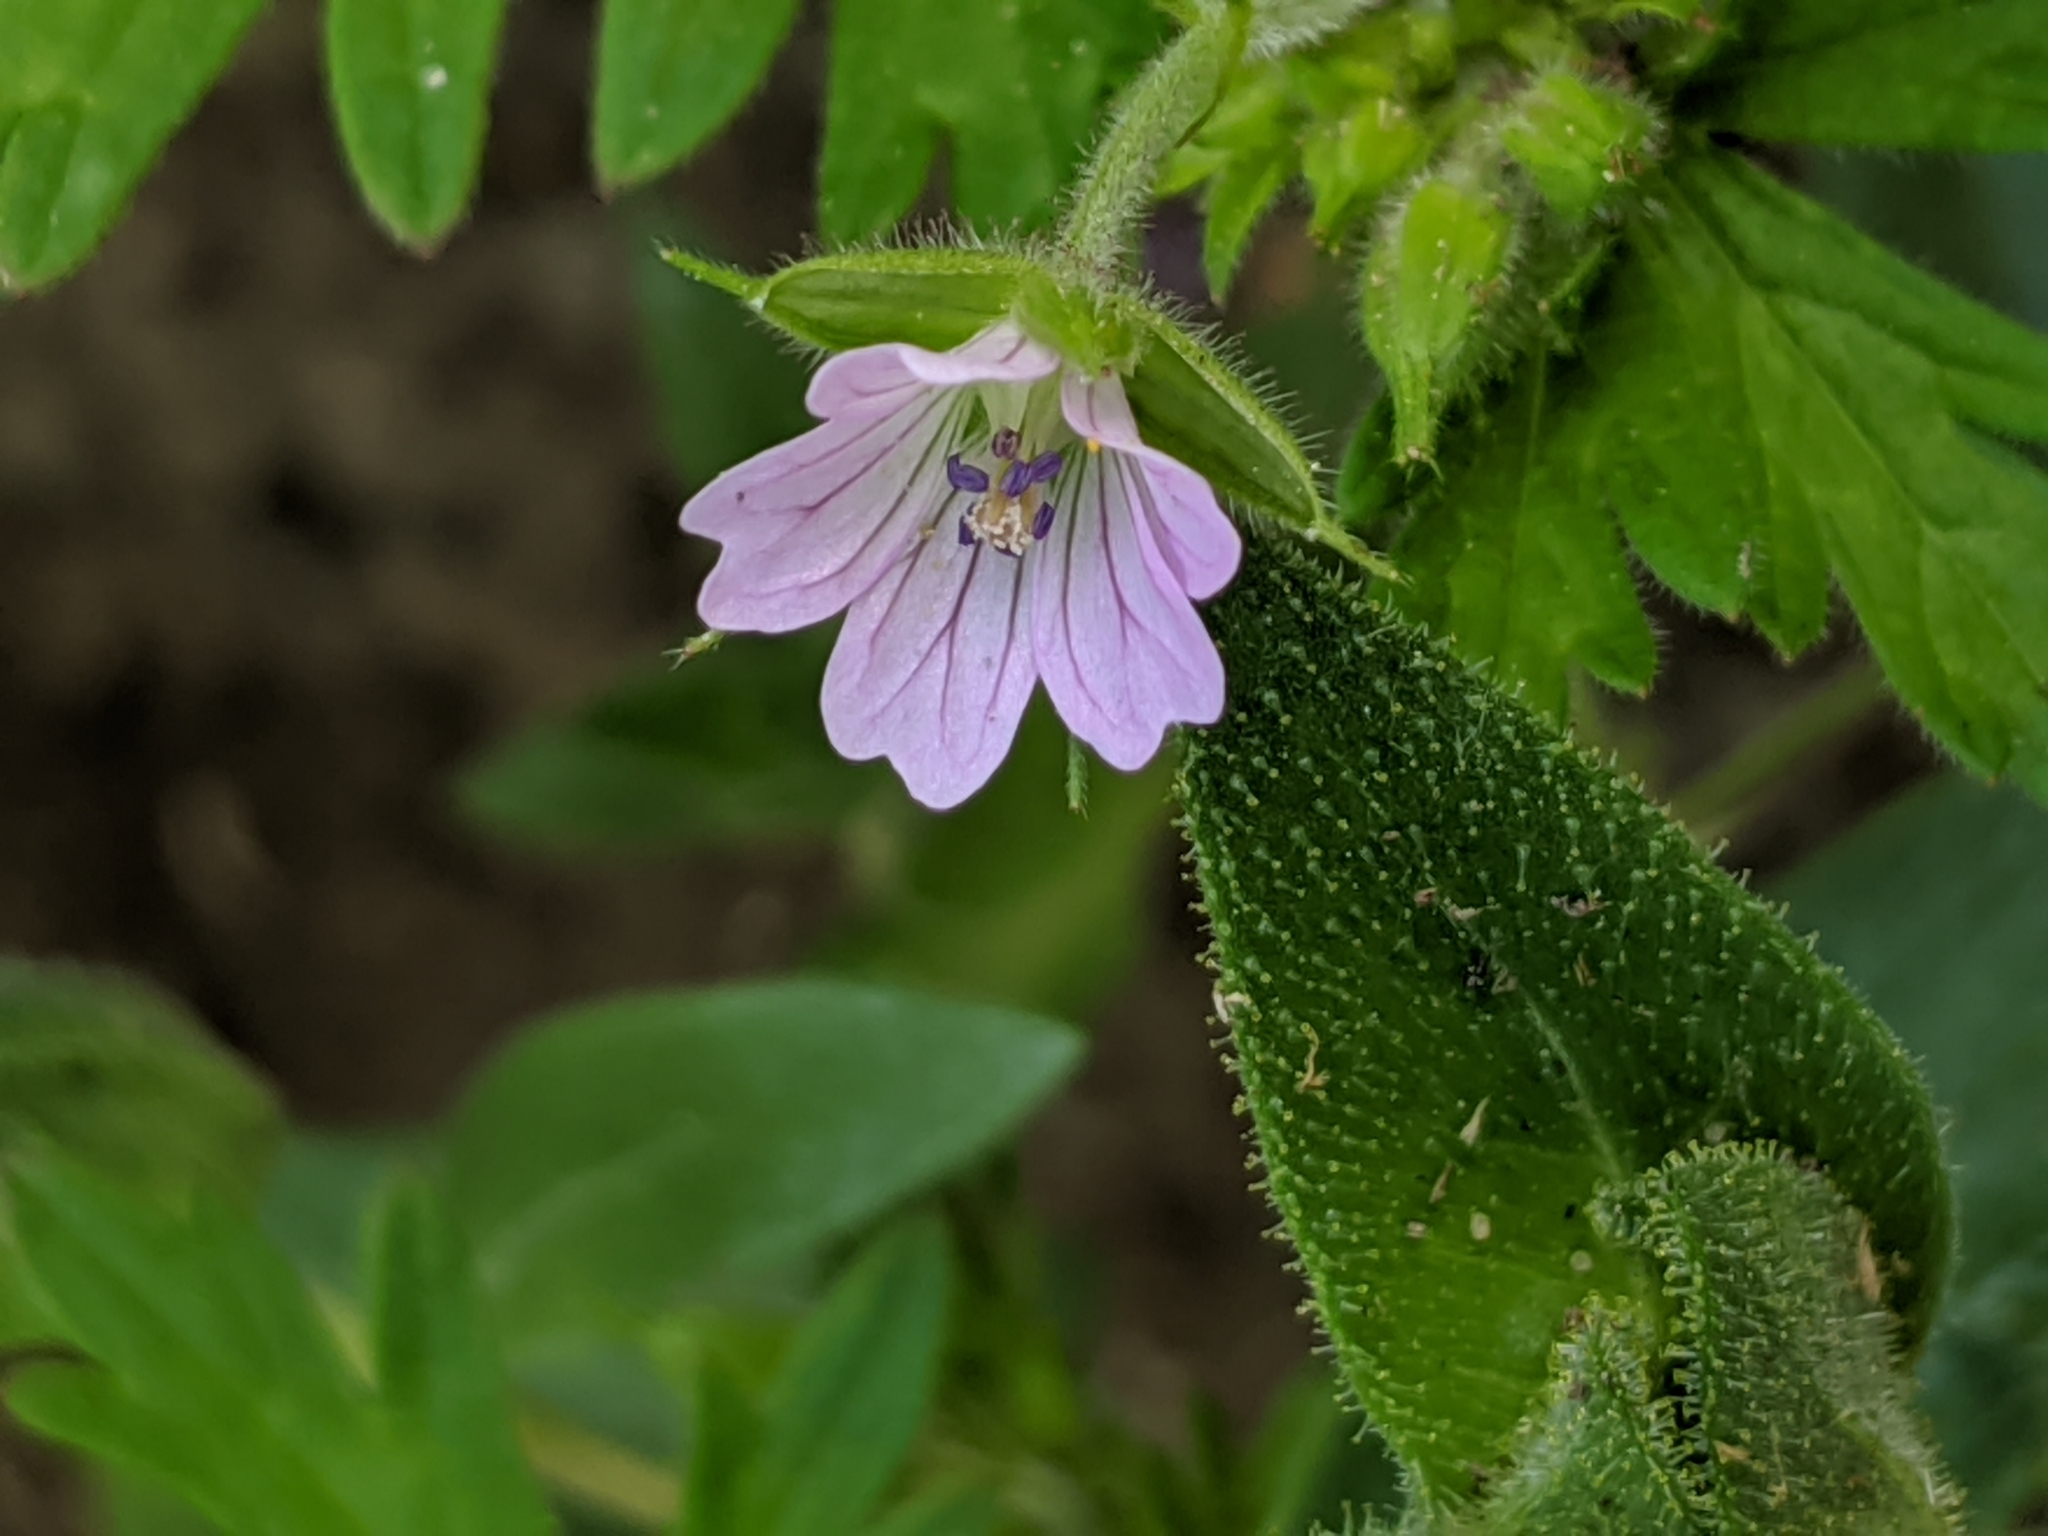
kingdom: Plantae
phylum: Tracheophyta
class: Magnoliopsida
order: Geraniales
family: Geraniaceae
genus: Geranium
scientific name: Geranium bicknellii
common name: Bicknell's cranesbill
